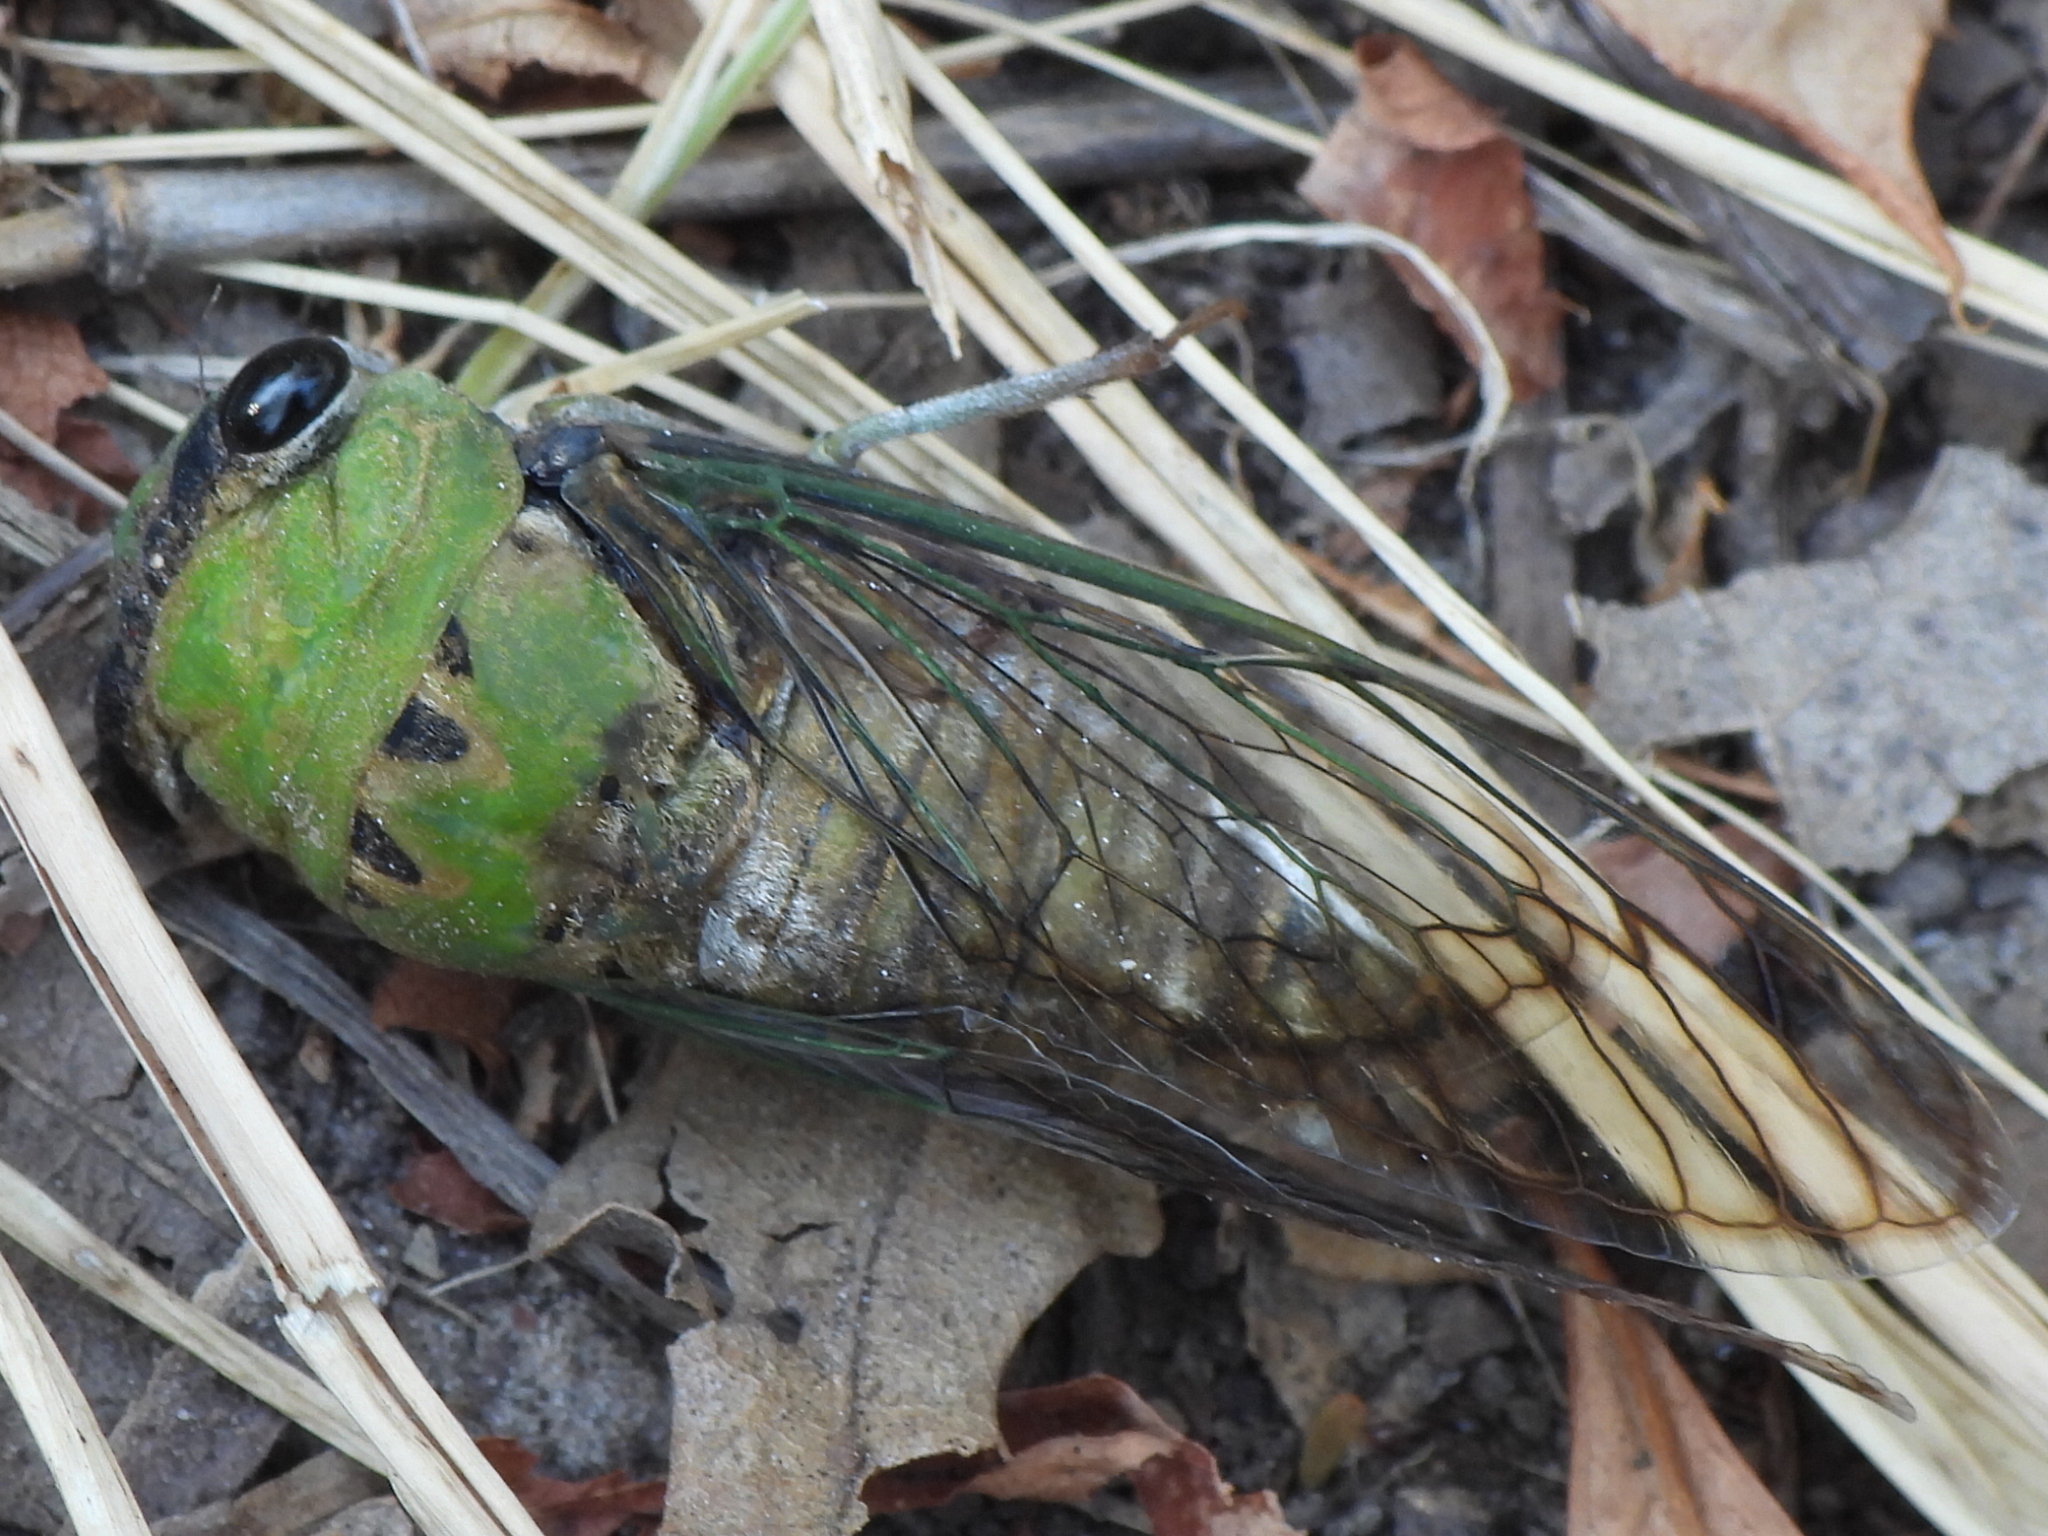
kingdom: Animalia
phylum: Arthropoda
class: Insecta
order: Hemiptera
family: Cicadidae
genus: Neotibicen
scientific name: Neotibicen superbus
